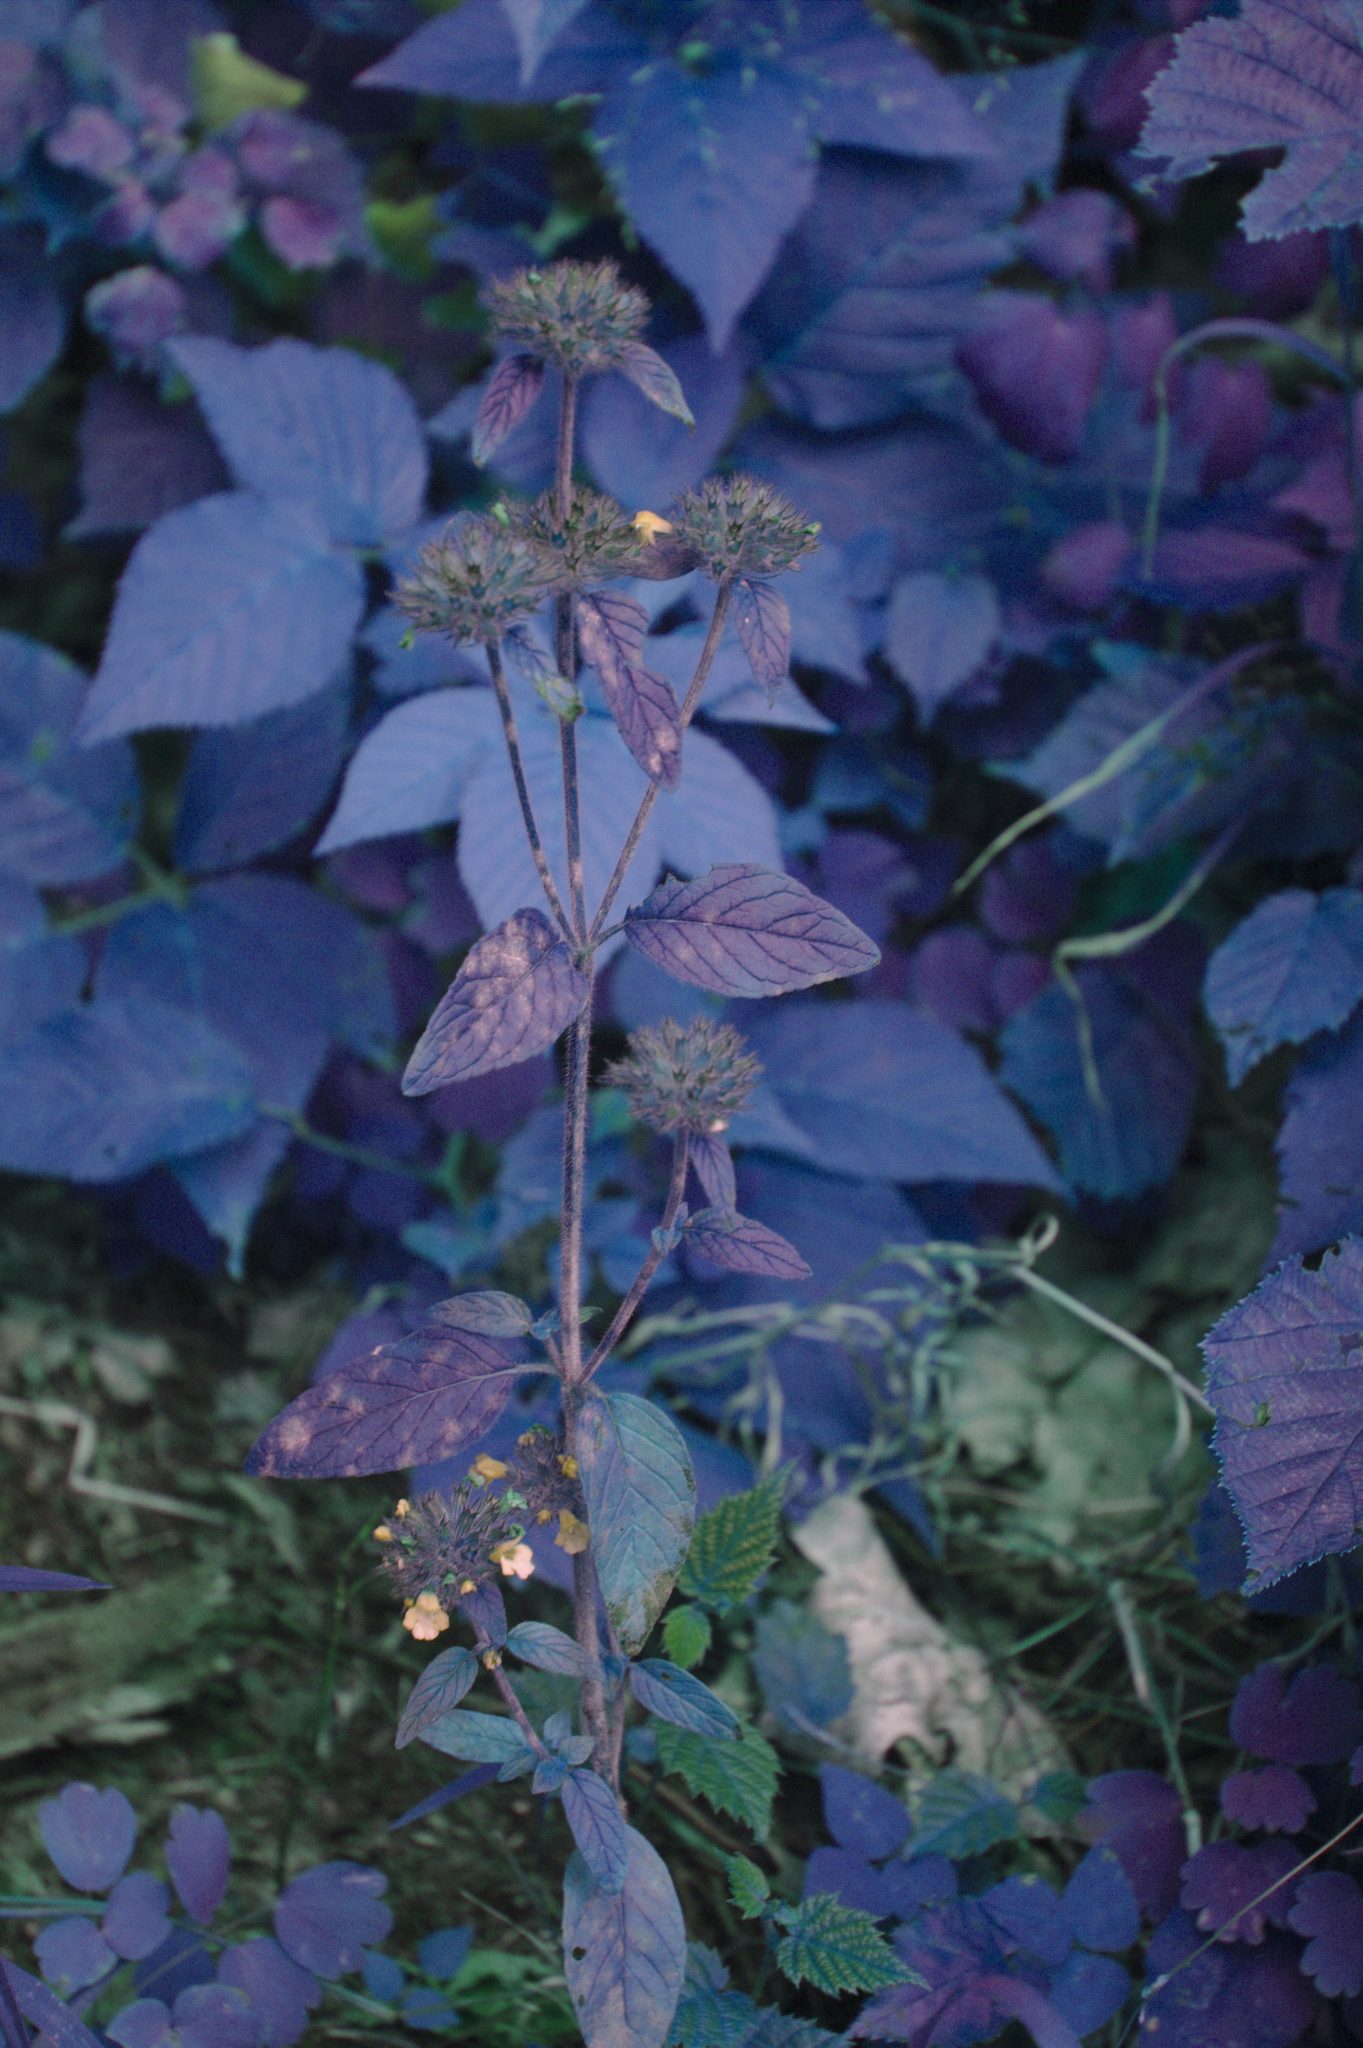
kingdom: Plantae
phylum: Tracheophyta
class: Magnoliopsida
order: Lamiales
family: Lamiaceae
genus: Clinopodium
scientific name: Clinopodium vulgare
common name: Wild basil
